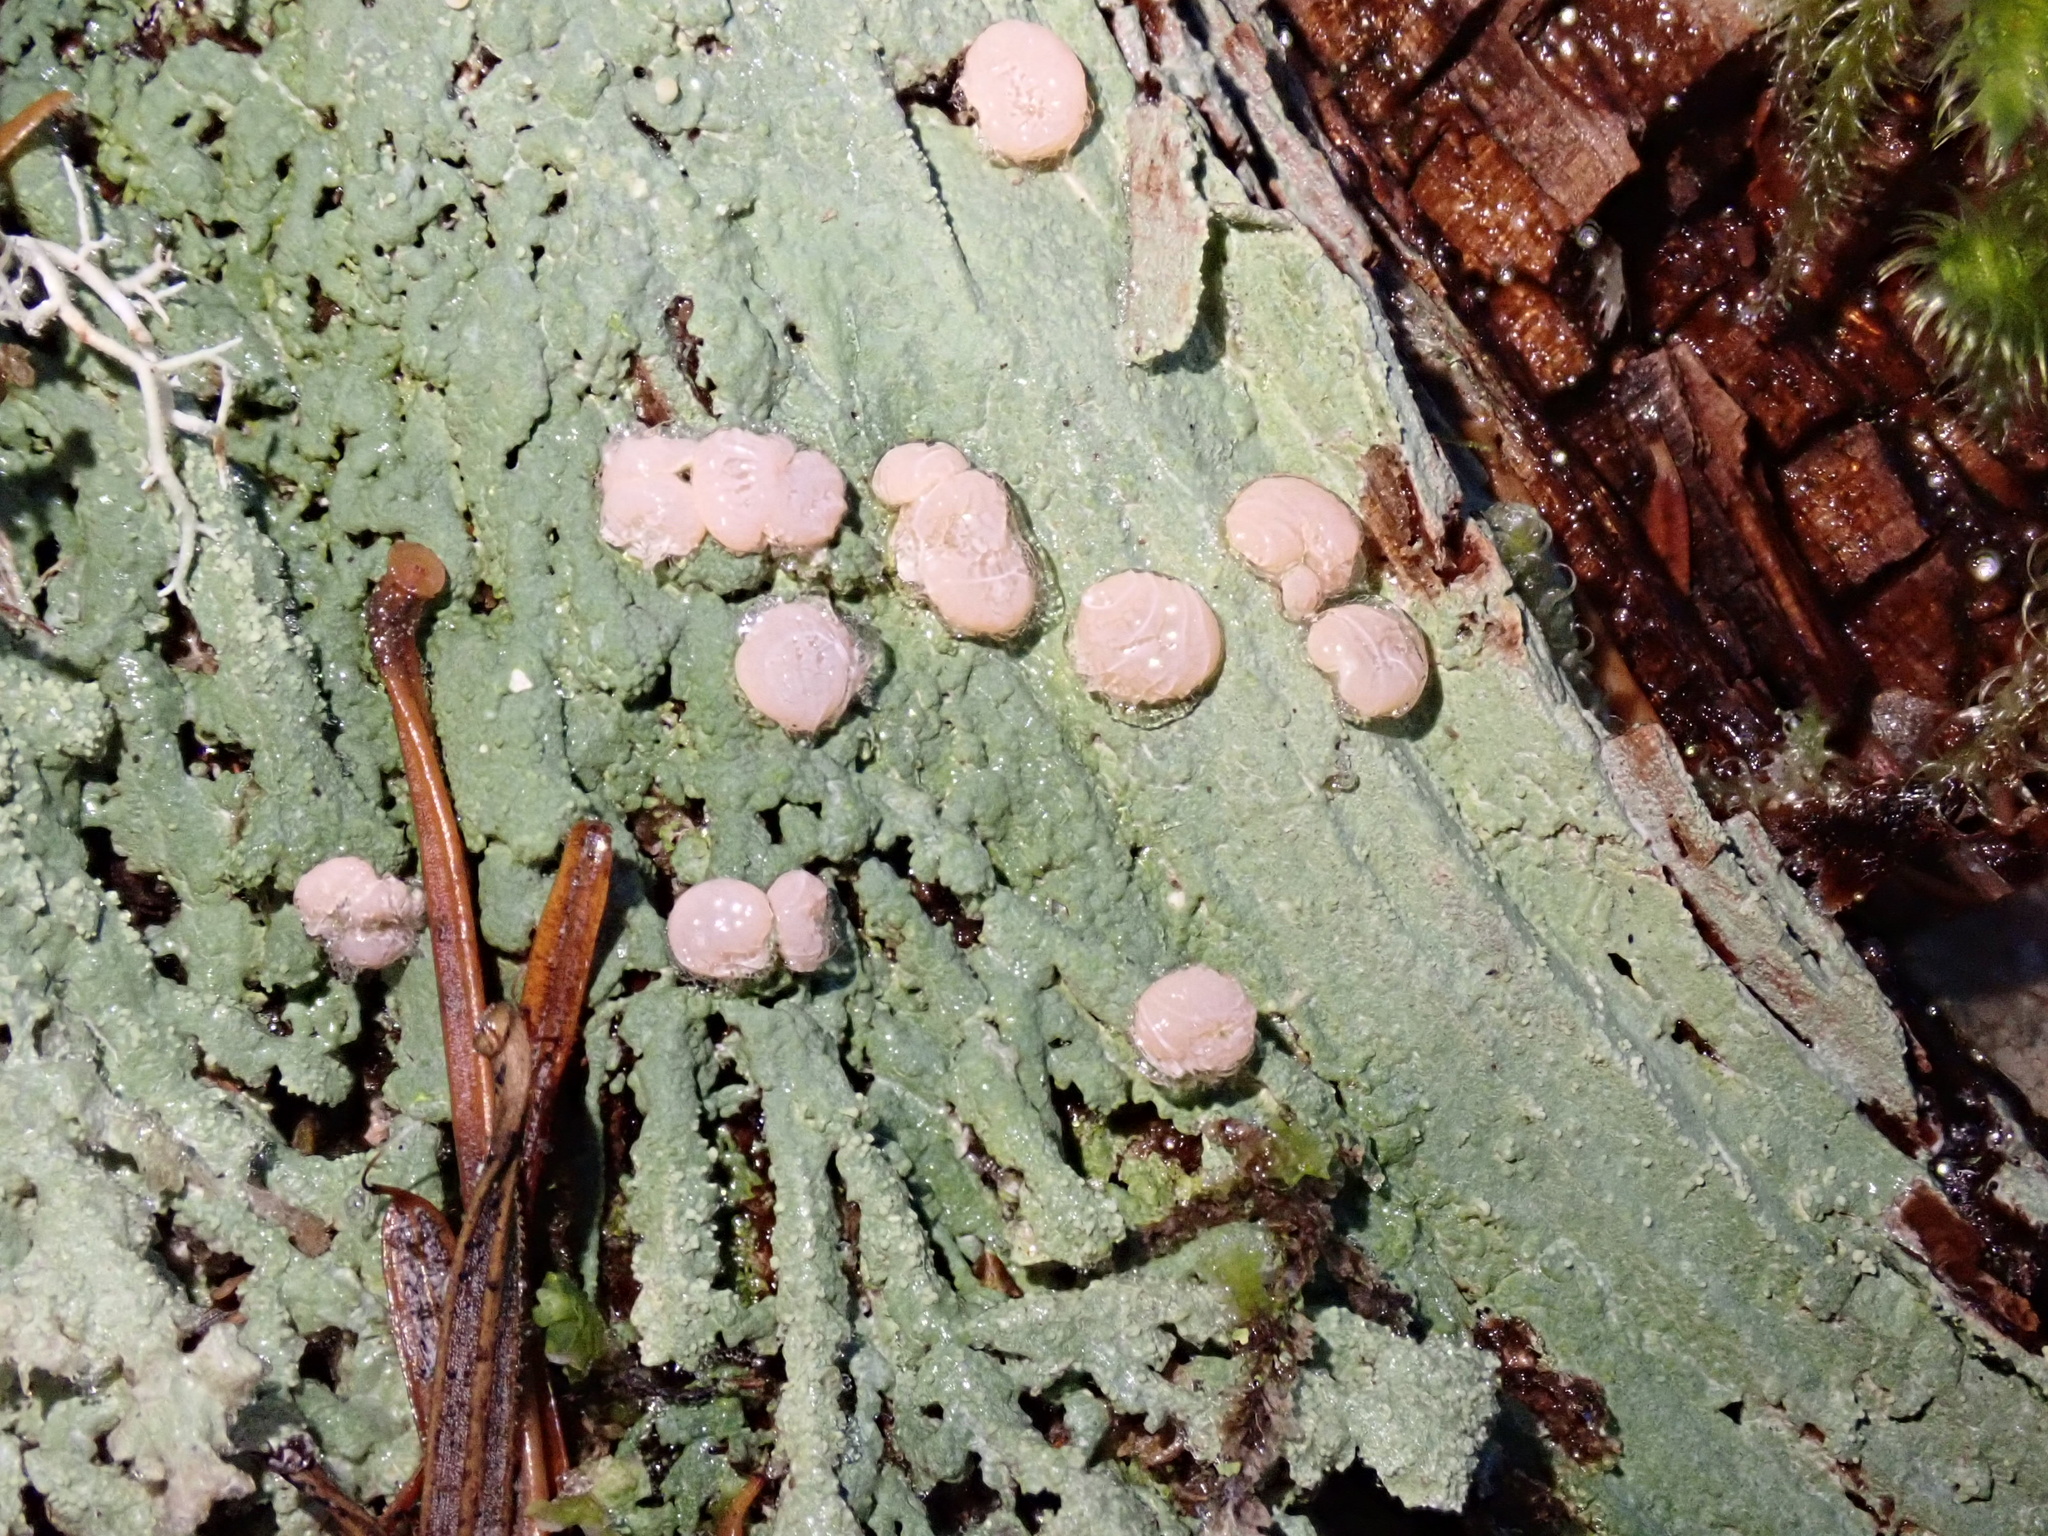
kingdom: Fungi
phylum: Ascomycota
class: Lecanoromycetes
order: Pertusariales
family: Icmadophilaceae
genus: Icmadophila
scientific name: Icmadophila ericetorum
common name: Candy lichen
